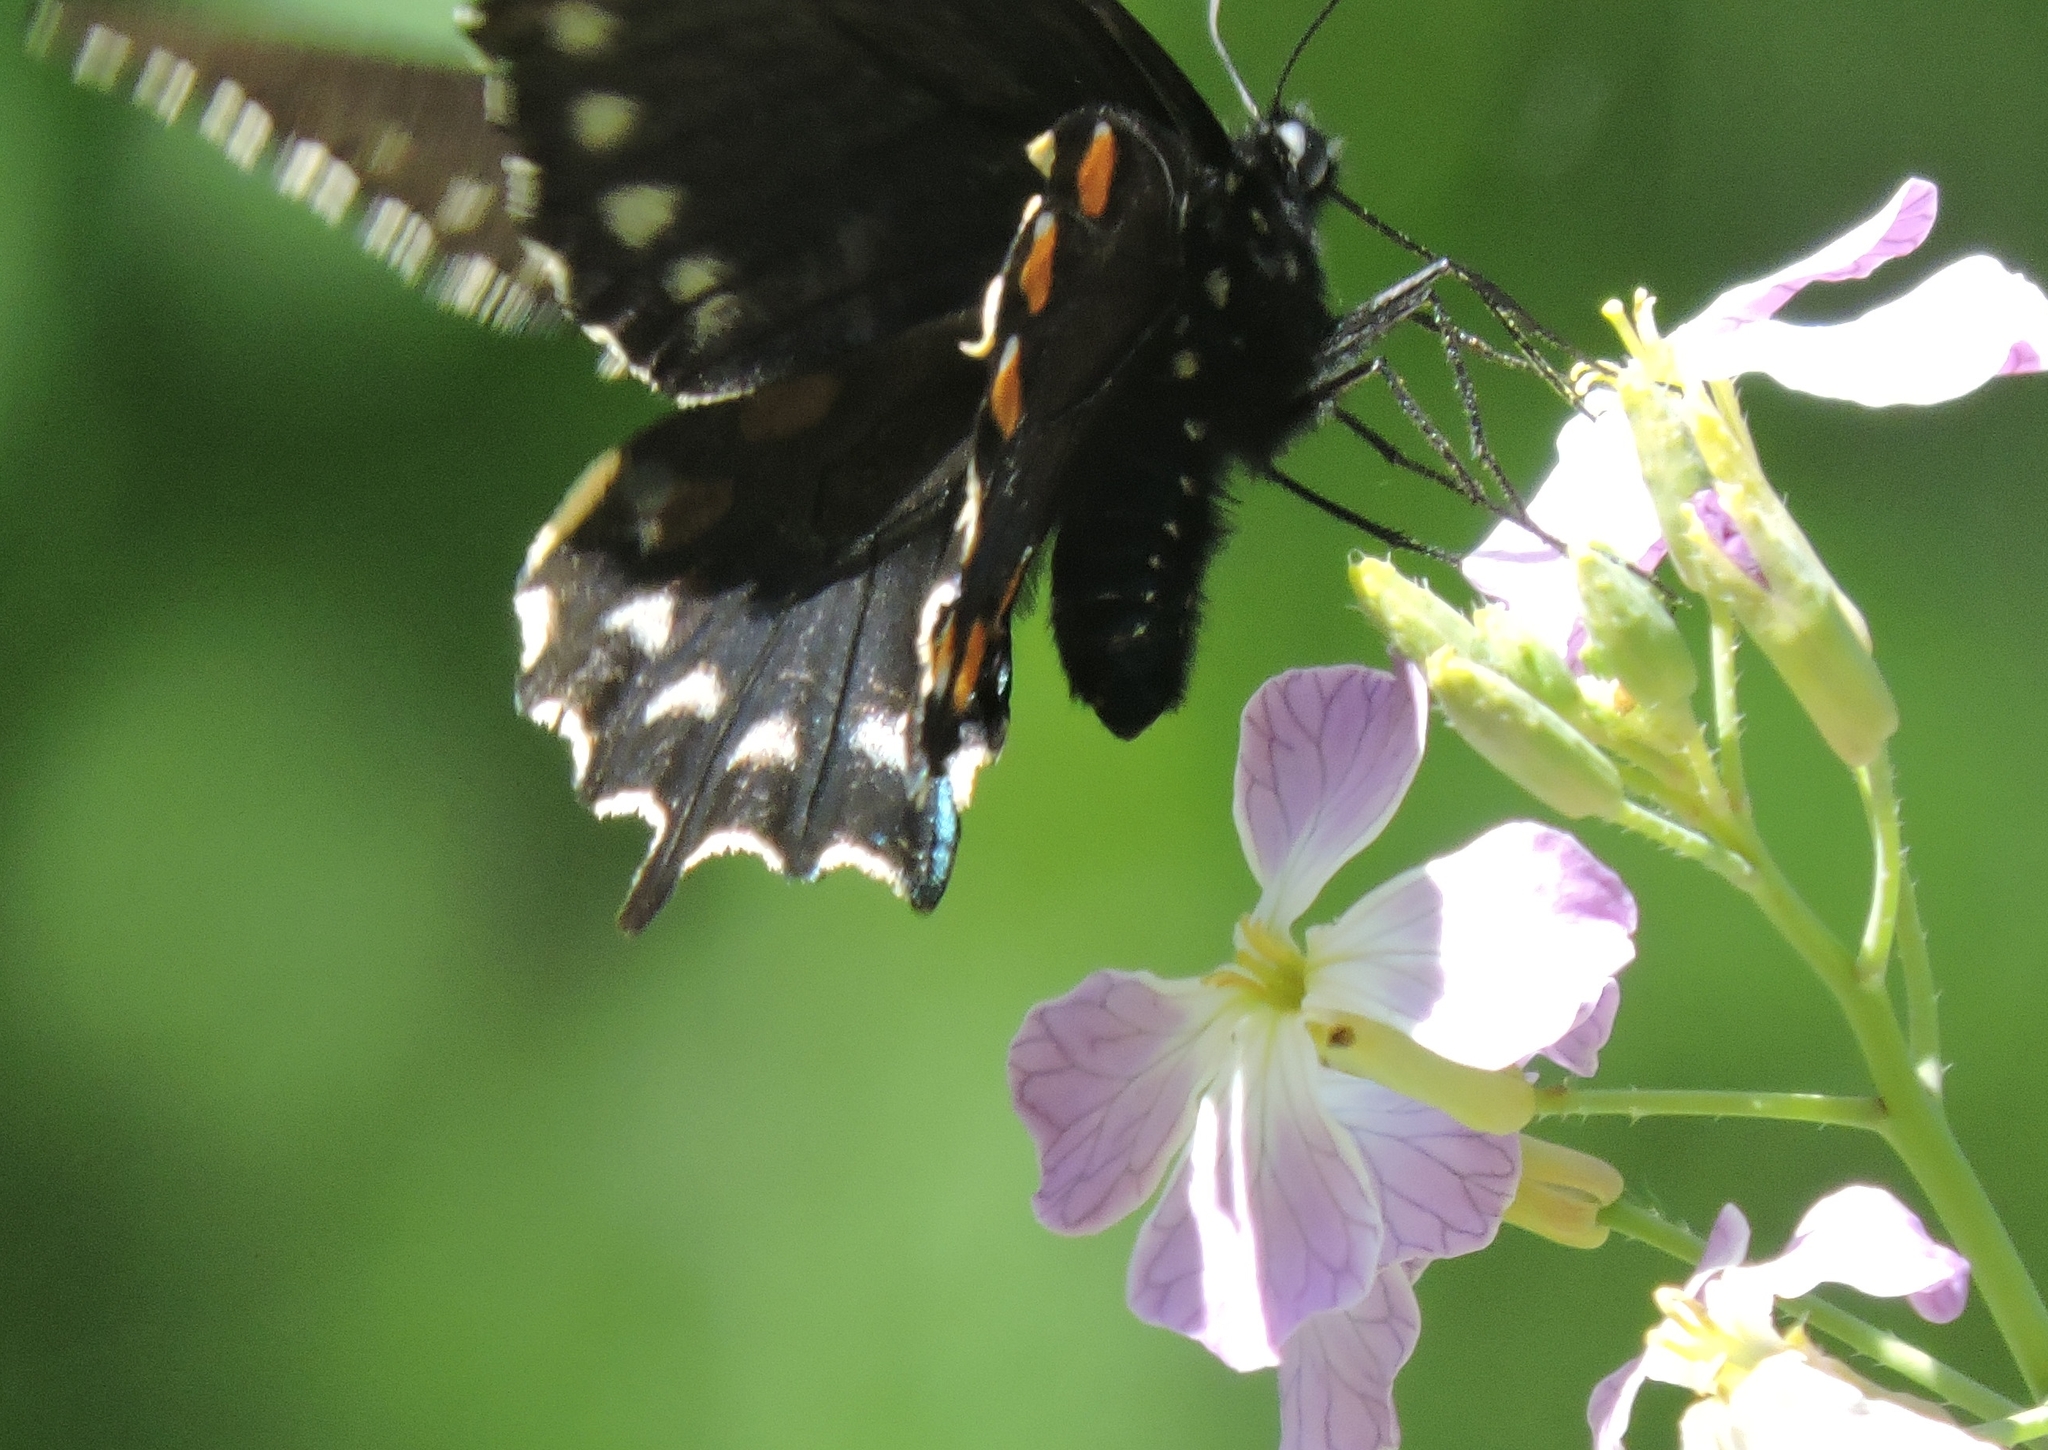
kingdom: Animalia
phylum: Arthropoda
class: Insecta
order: Lepidoptera
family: Papilionidae
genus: Battus
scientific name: Battus philenor
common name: Pipevine swallowtail
